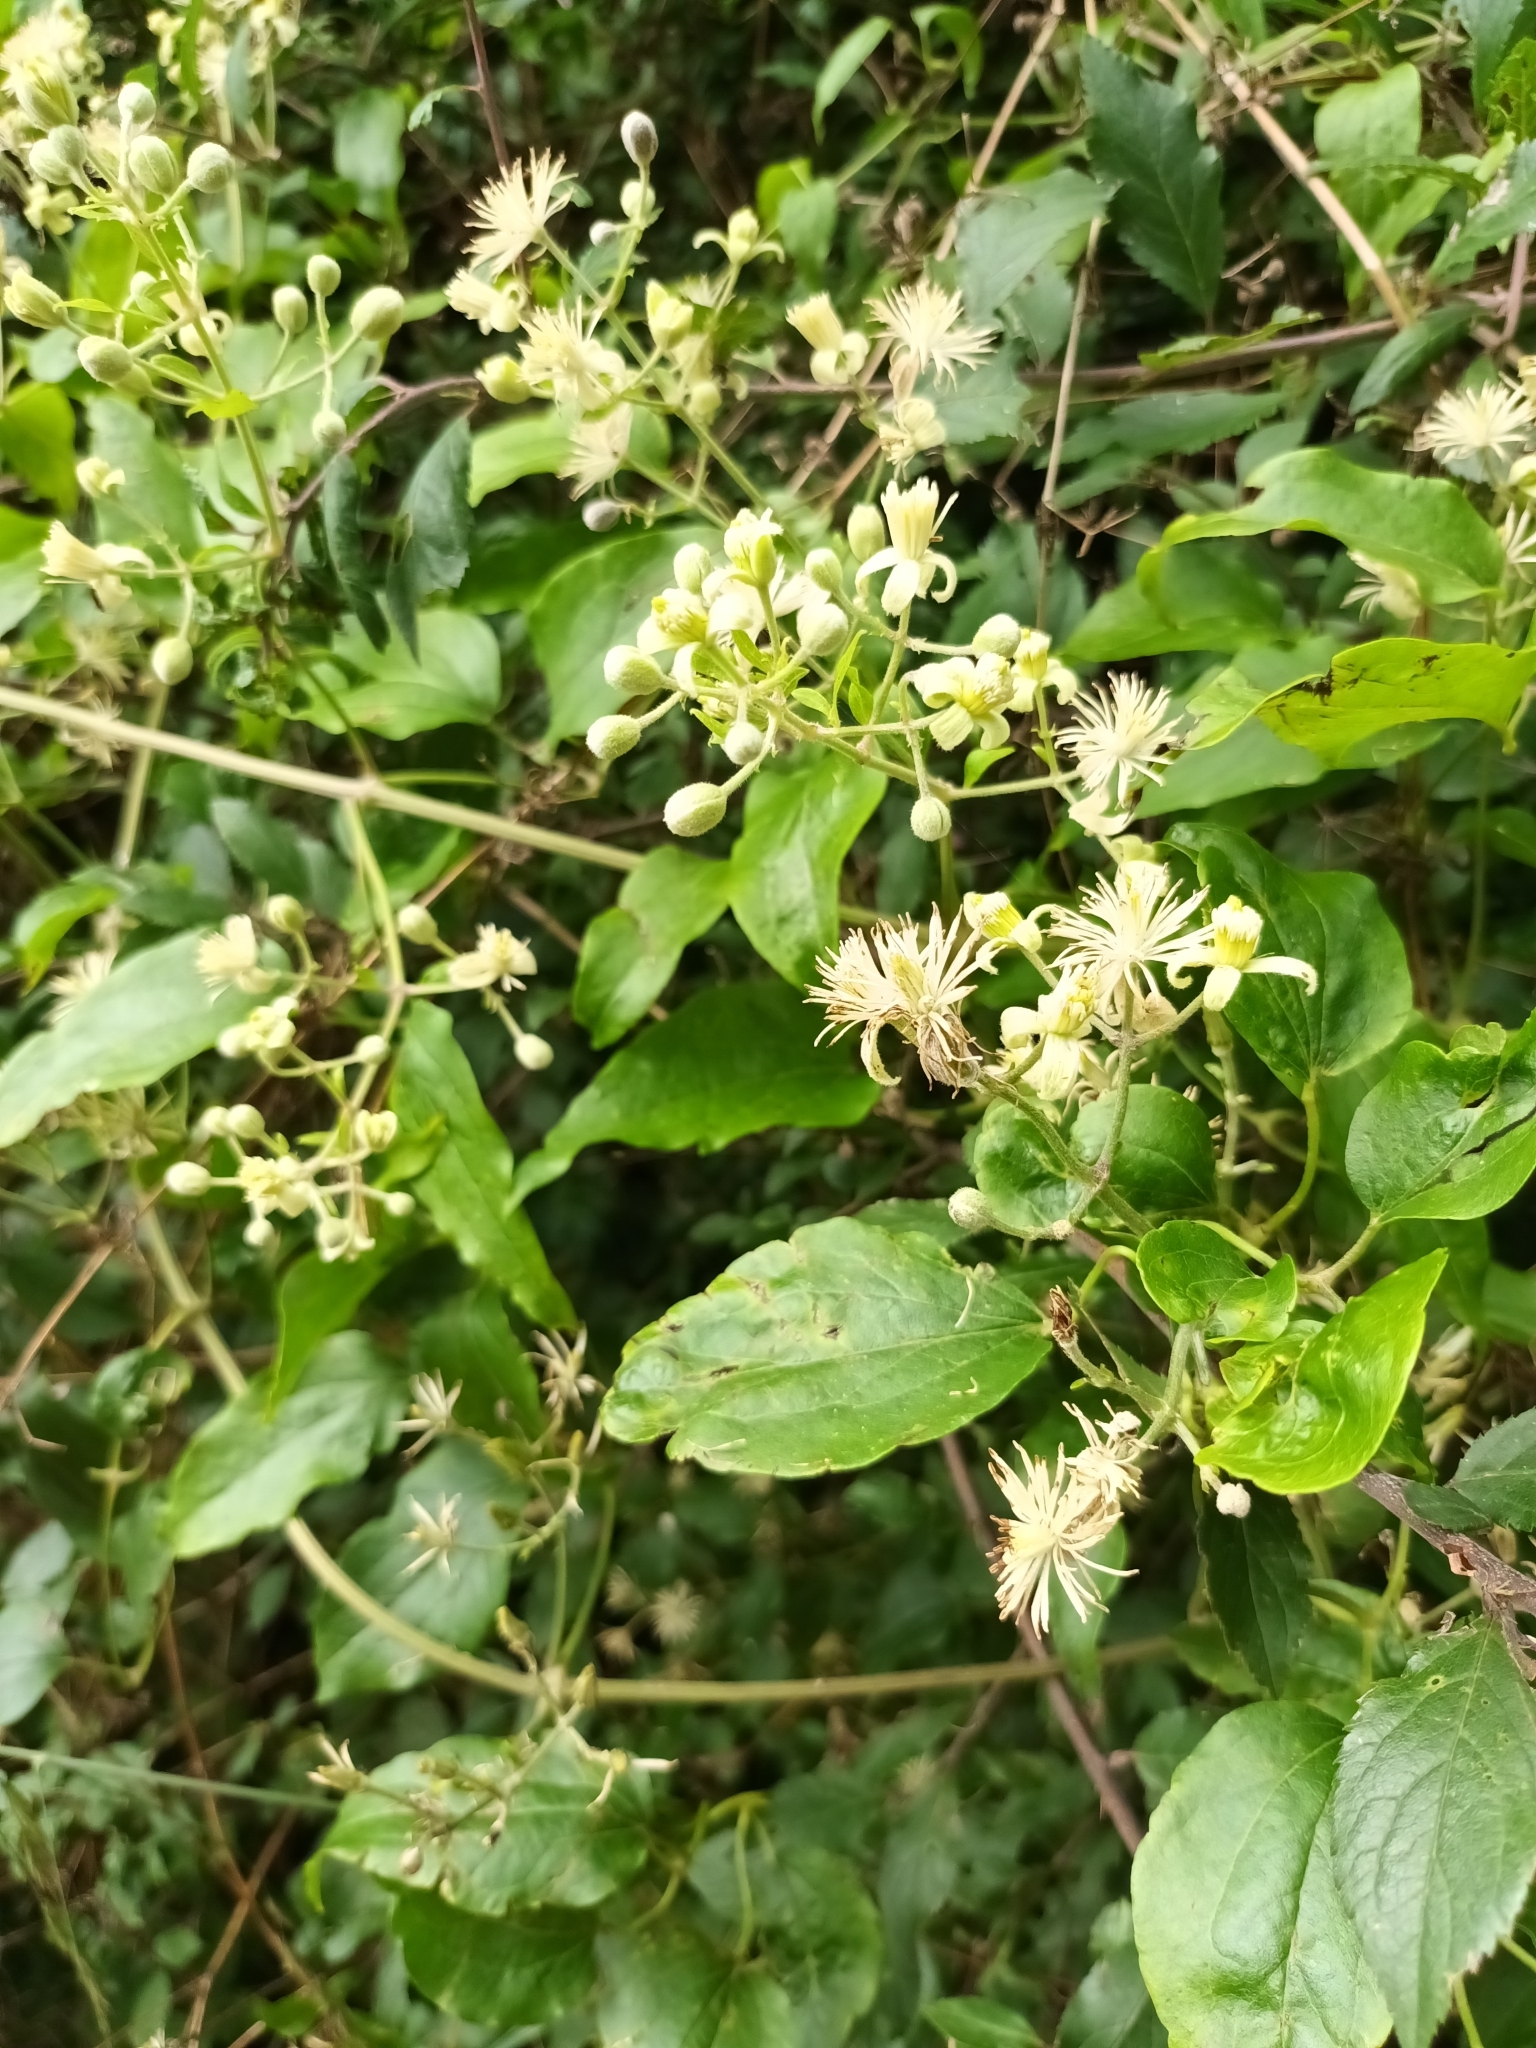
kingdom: Plantae
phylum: Tracheophyta
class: Magnoliopsida
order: Ranunculales
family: Ranunculaceae
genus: Clematis
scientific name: Clematis vitalba
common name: Evergreen clematis
